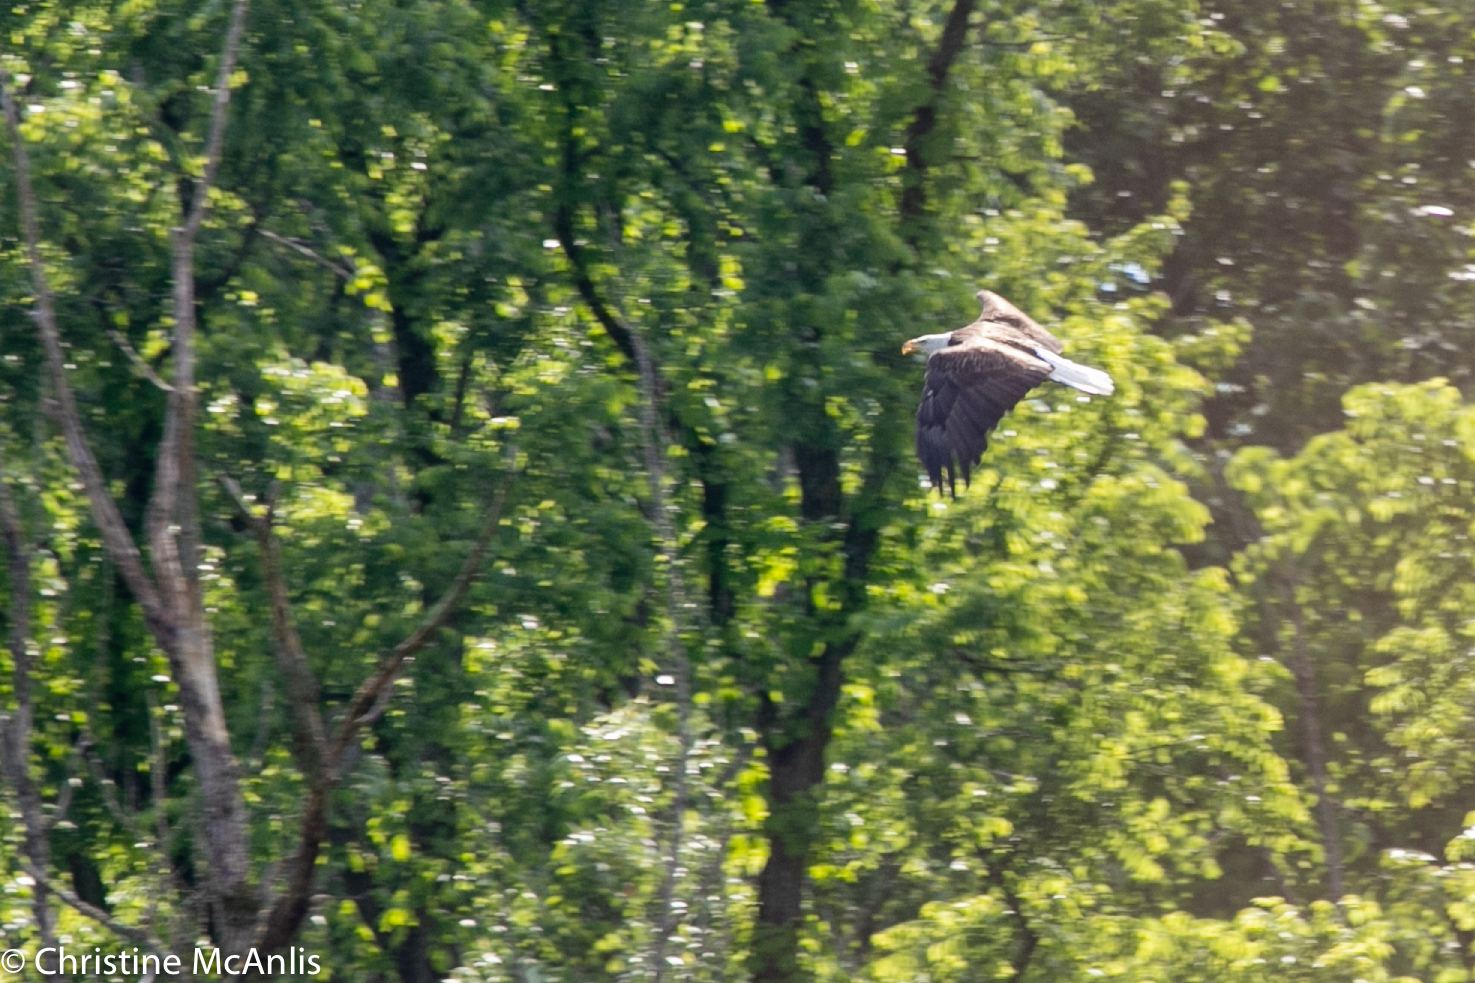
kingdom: Animalia
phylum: Chordata
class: Aves
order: Accipitriformes
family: Accipitridae
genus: Haliaeetus
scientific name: Haliaeetus leucocephalus
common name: Bald eagle
